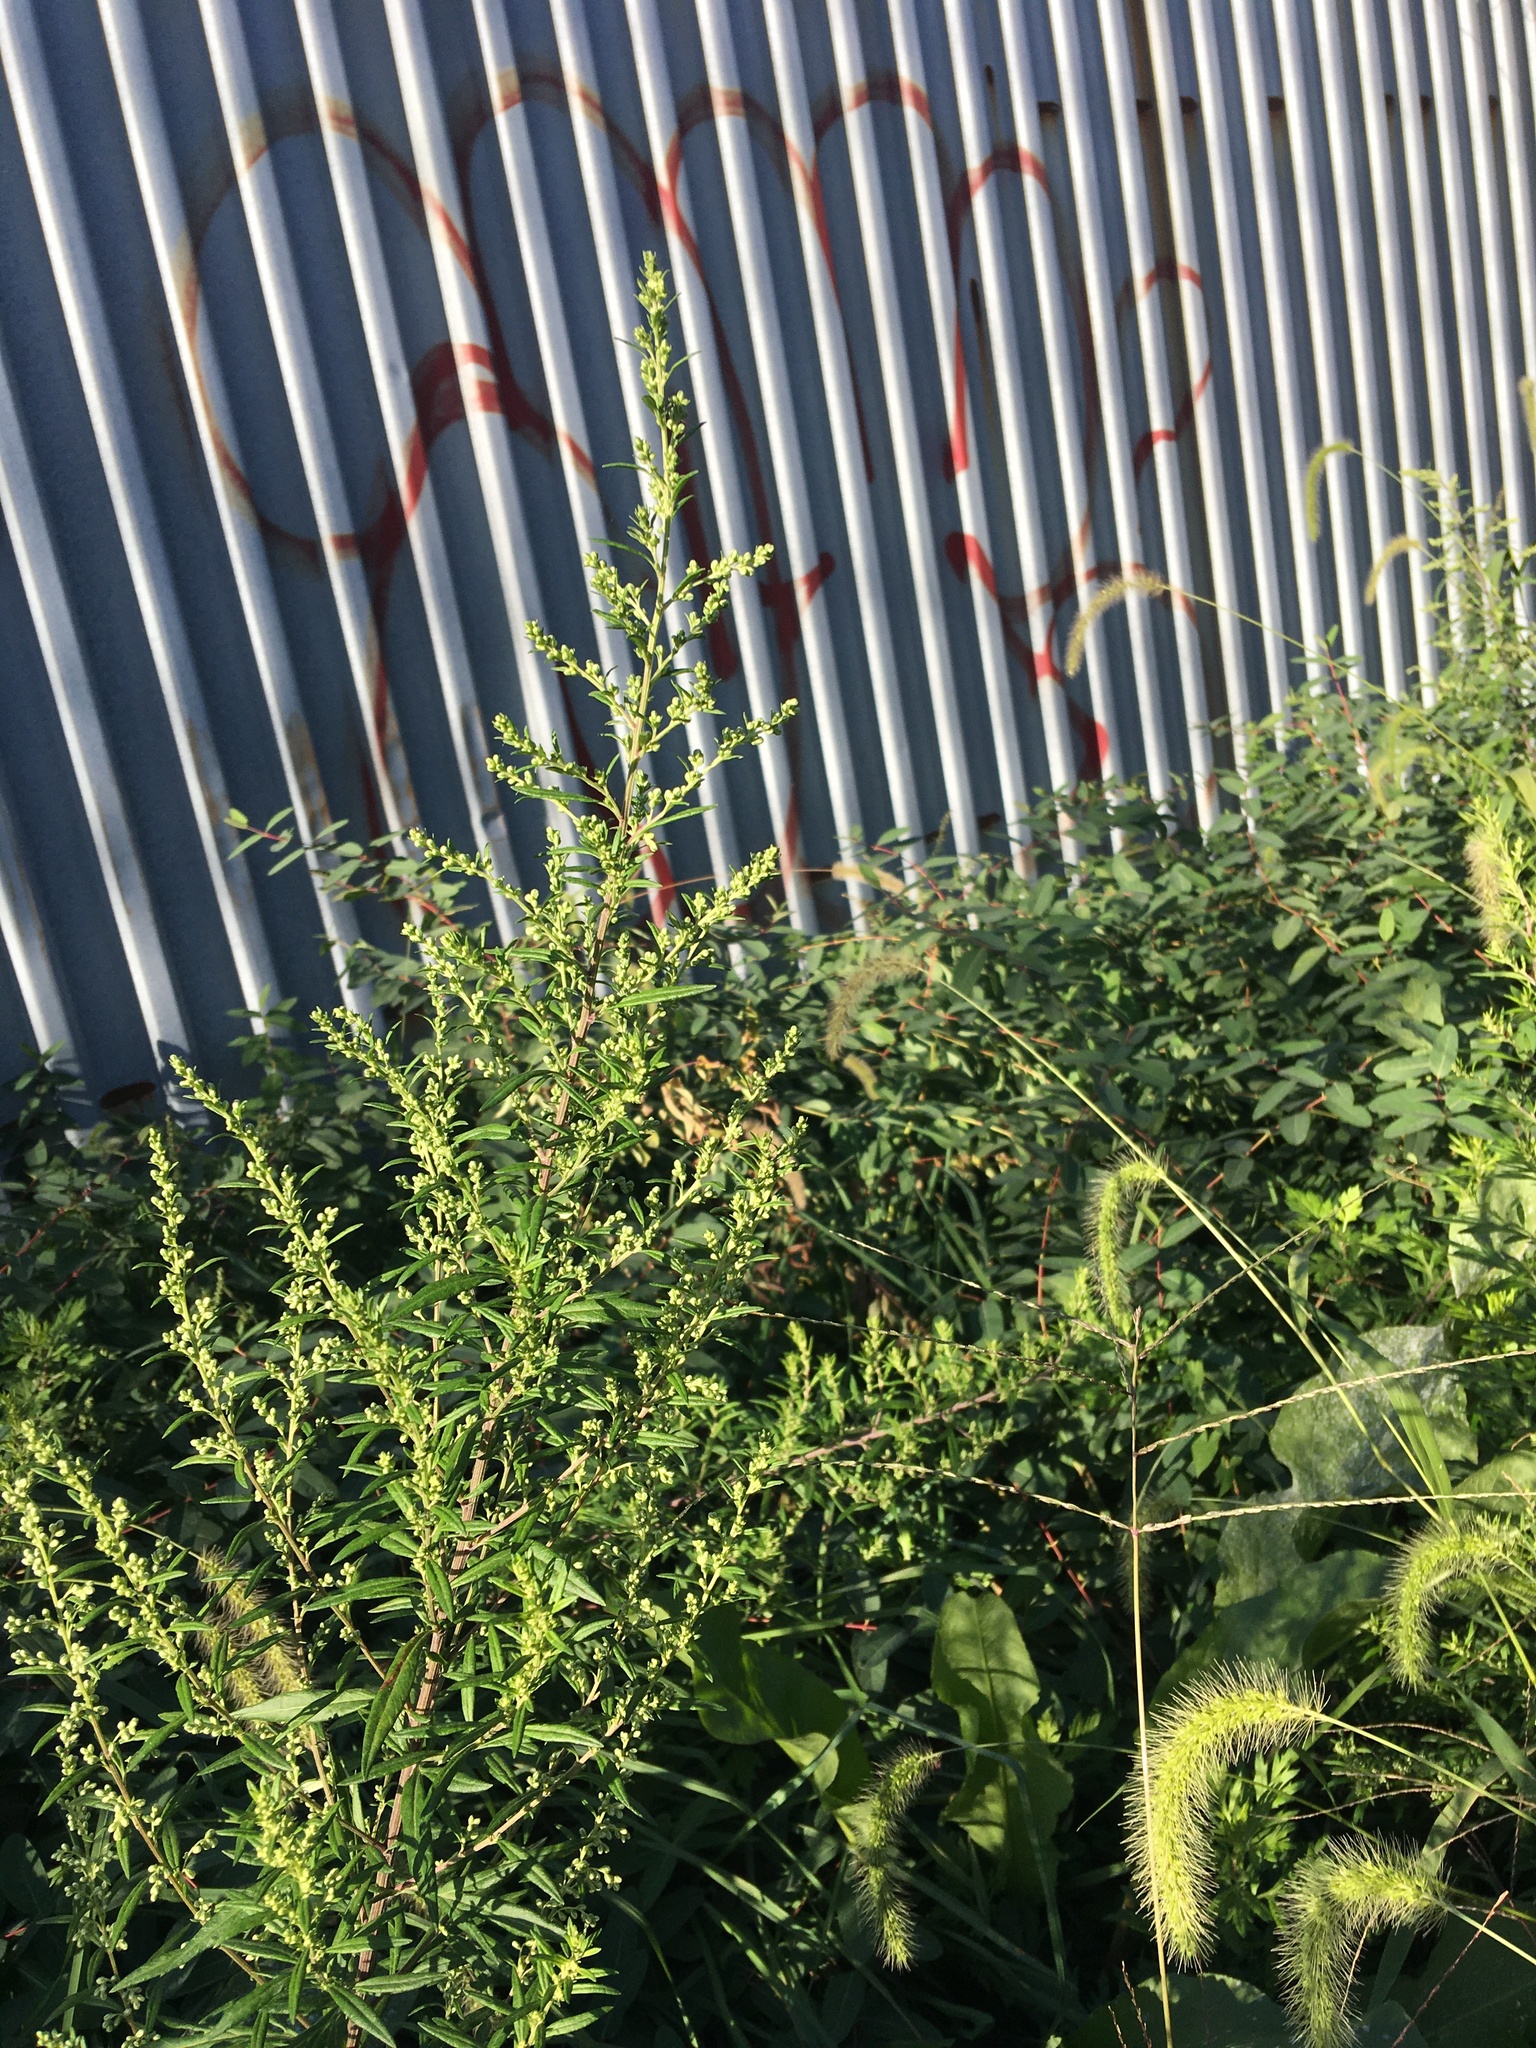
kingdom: Plantae
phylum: Tracheophyta
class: Magnoliopsida
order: Asterales
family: Asteraceae
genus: Artemisia
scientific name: Artemisia vulgaris
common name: Mugwort
